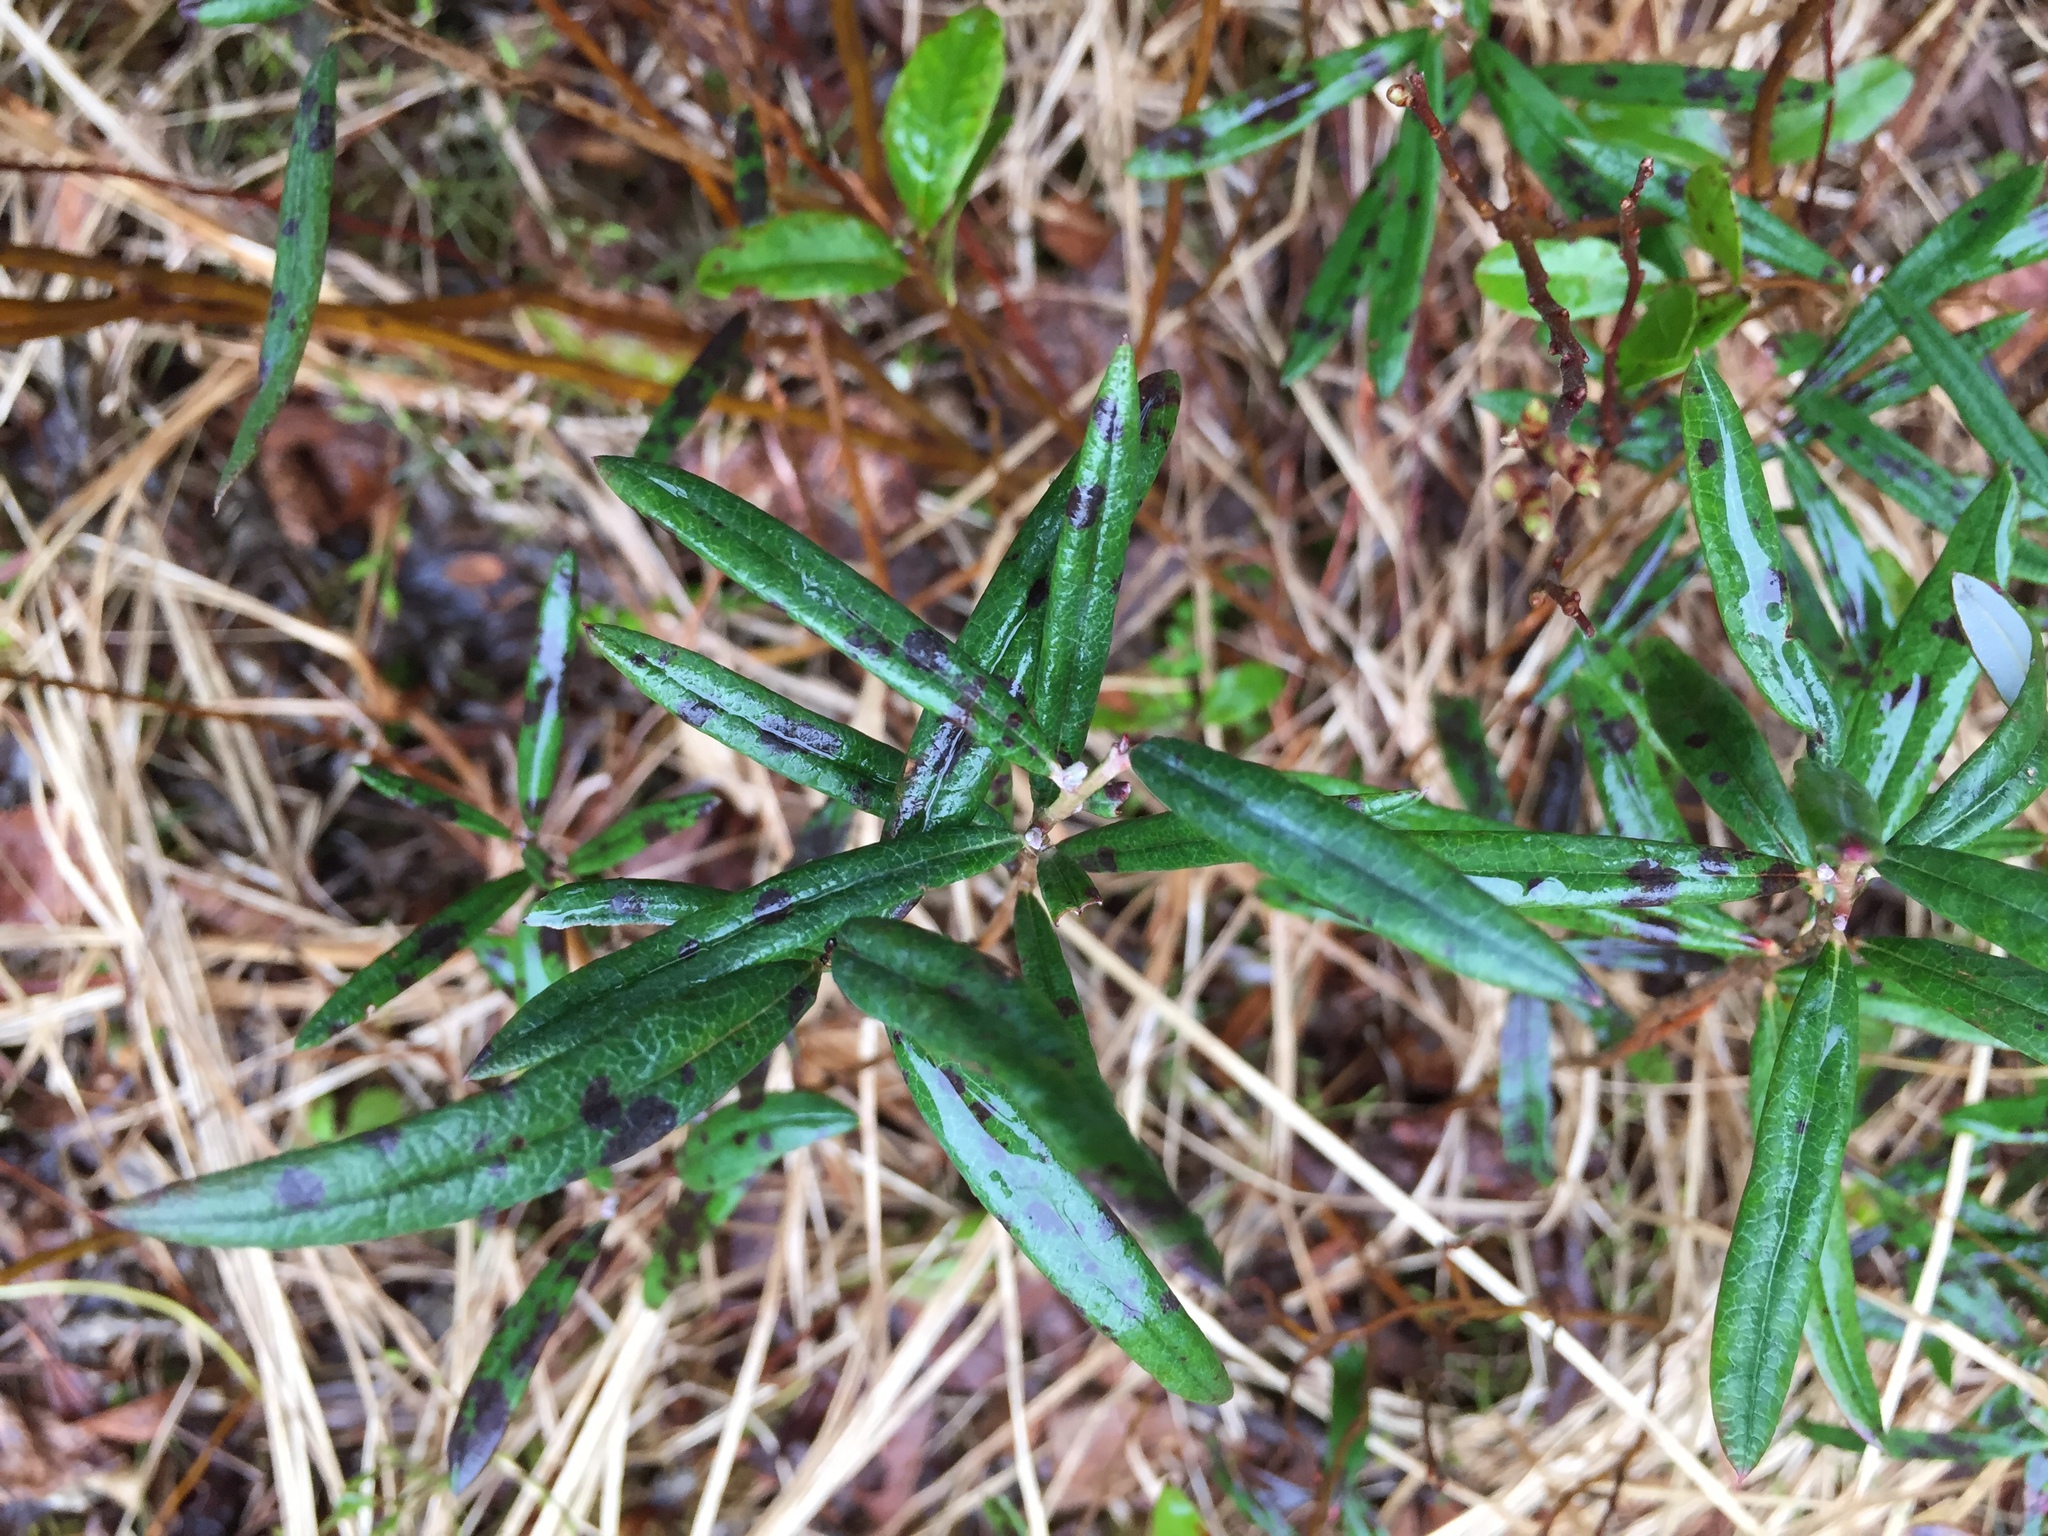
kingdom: Plantae
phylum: Tracheophyta
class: Magnoliopsida
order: Ericales
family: Ericaceae
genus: Andromeda
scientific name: Andromeda polifolia
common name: Bog-rosemary
